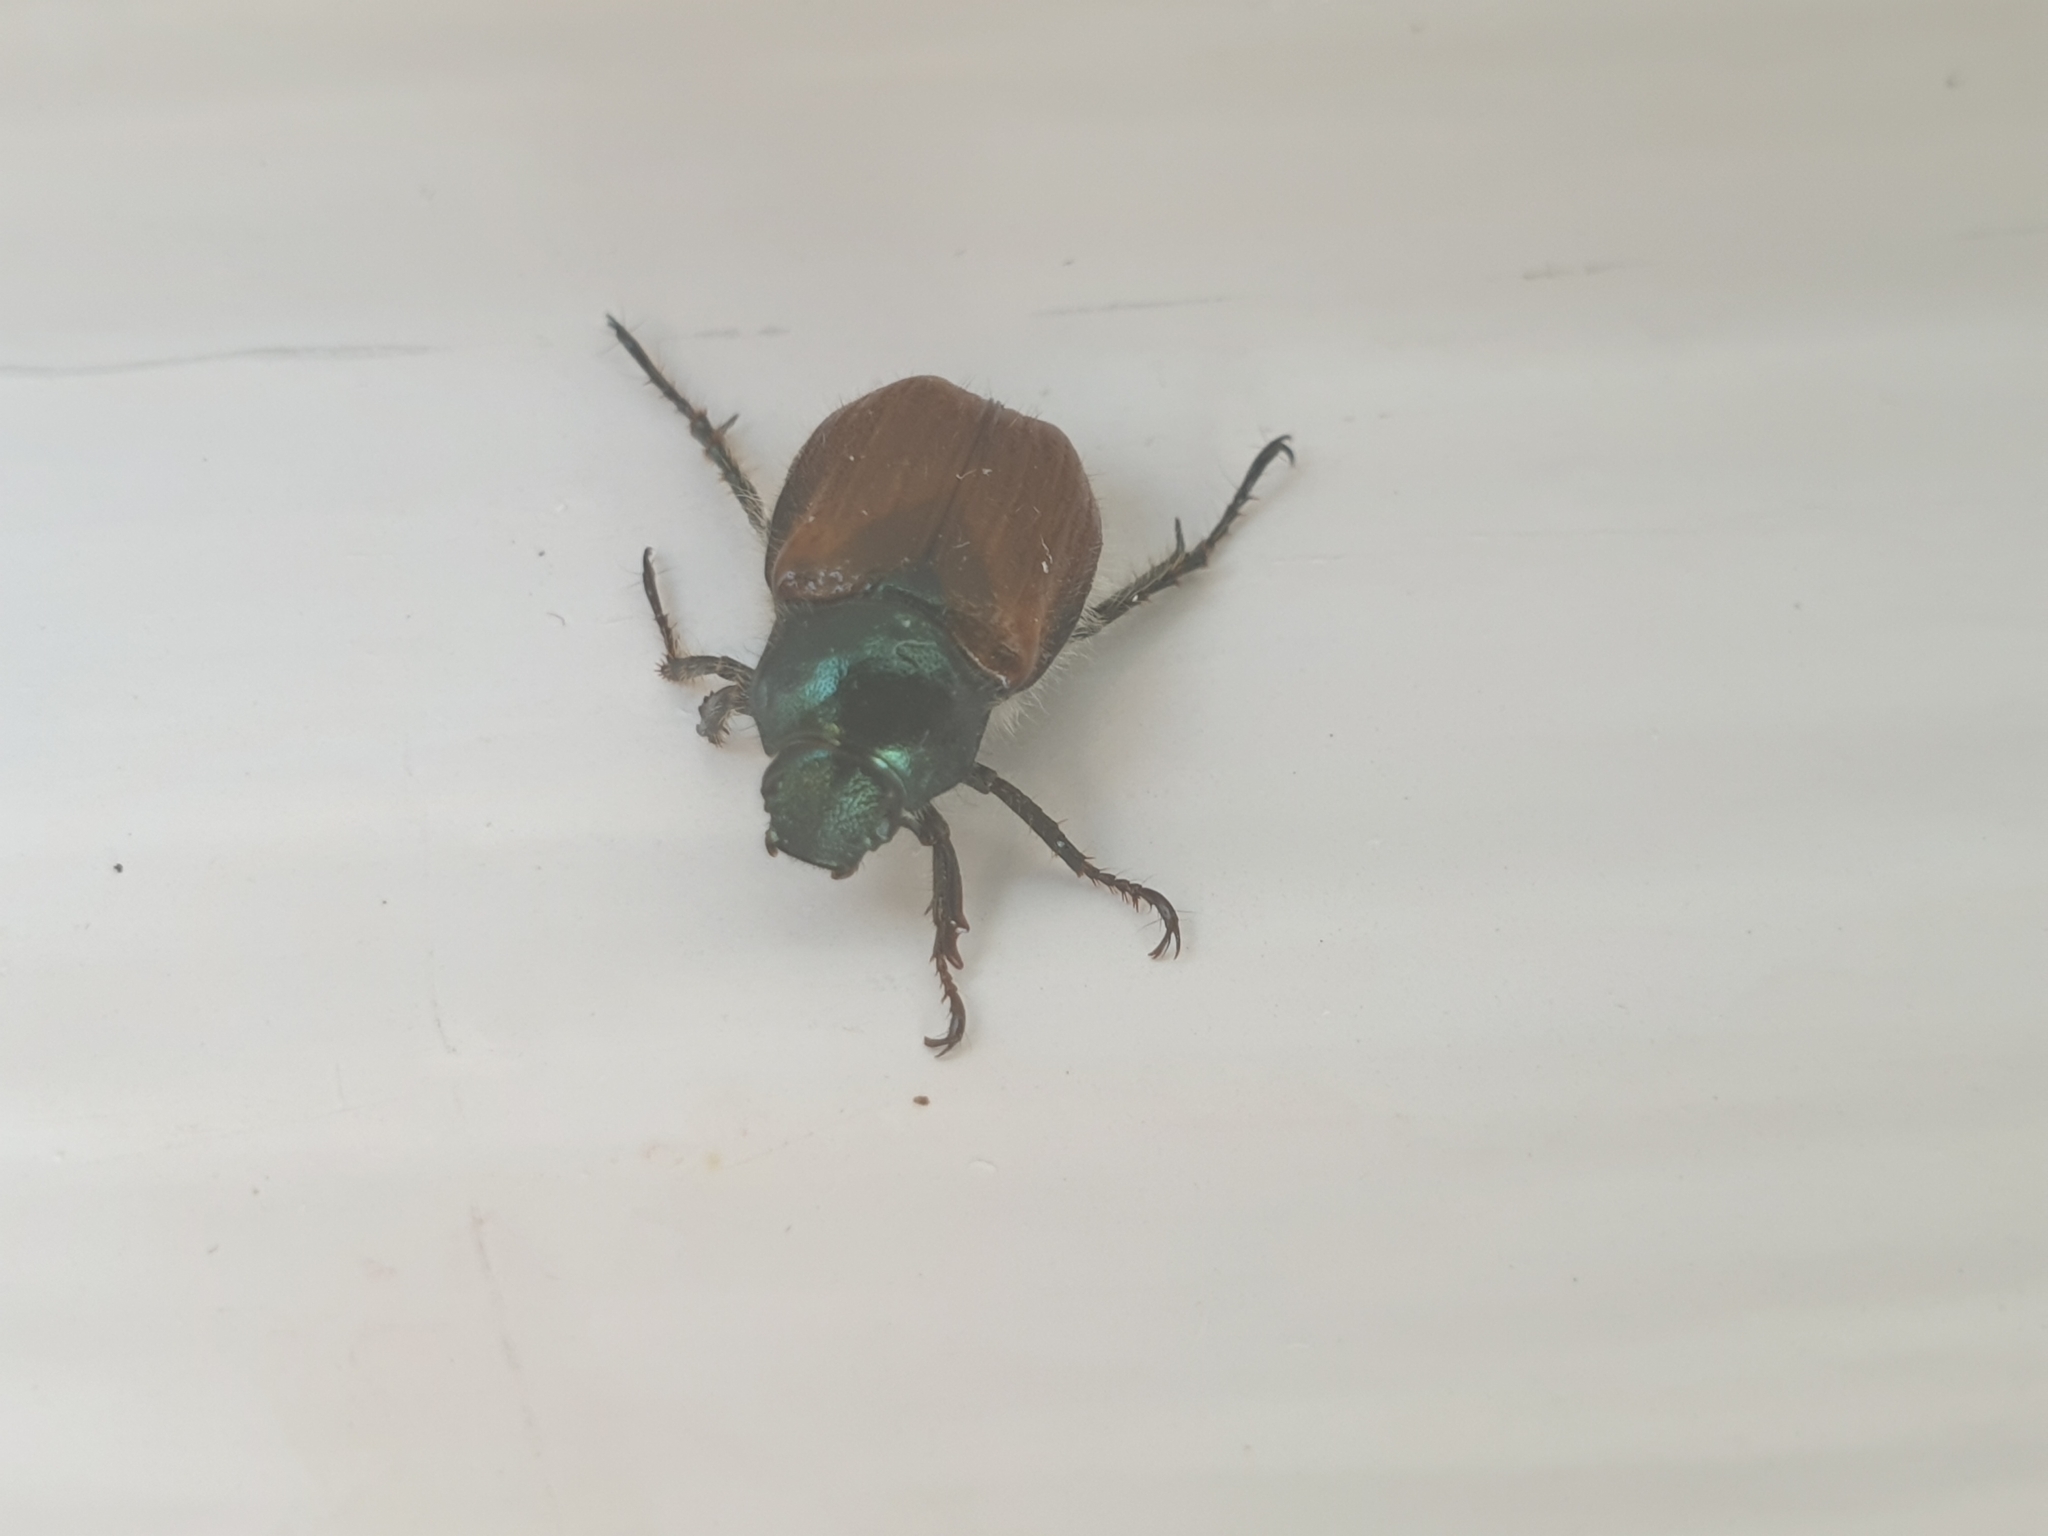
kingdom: Animalia
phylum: Arthropoda
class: Insecta
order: Coleoptera
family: Scarabaeidae
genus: Phyllopertha
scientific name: Phyllopertha horticola
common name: Garden chafer
